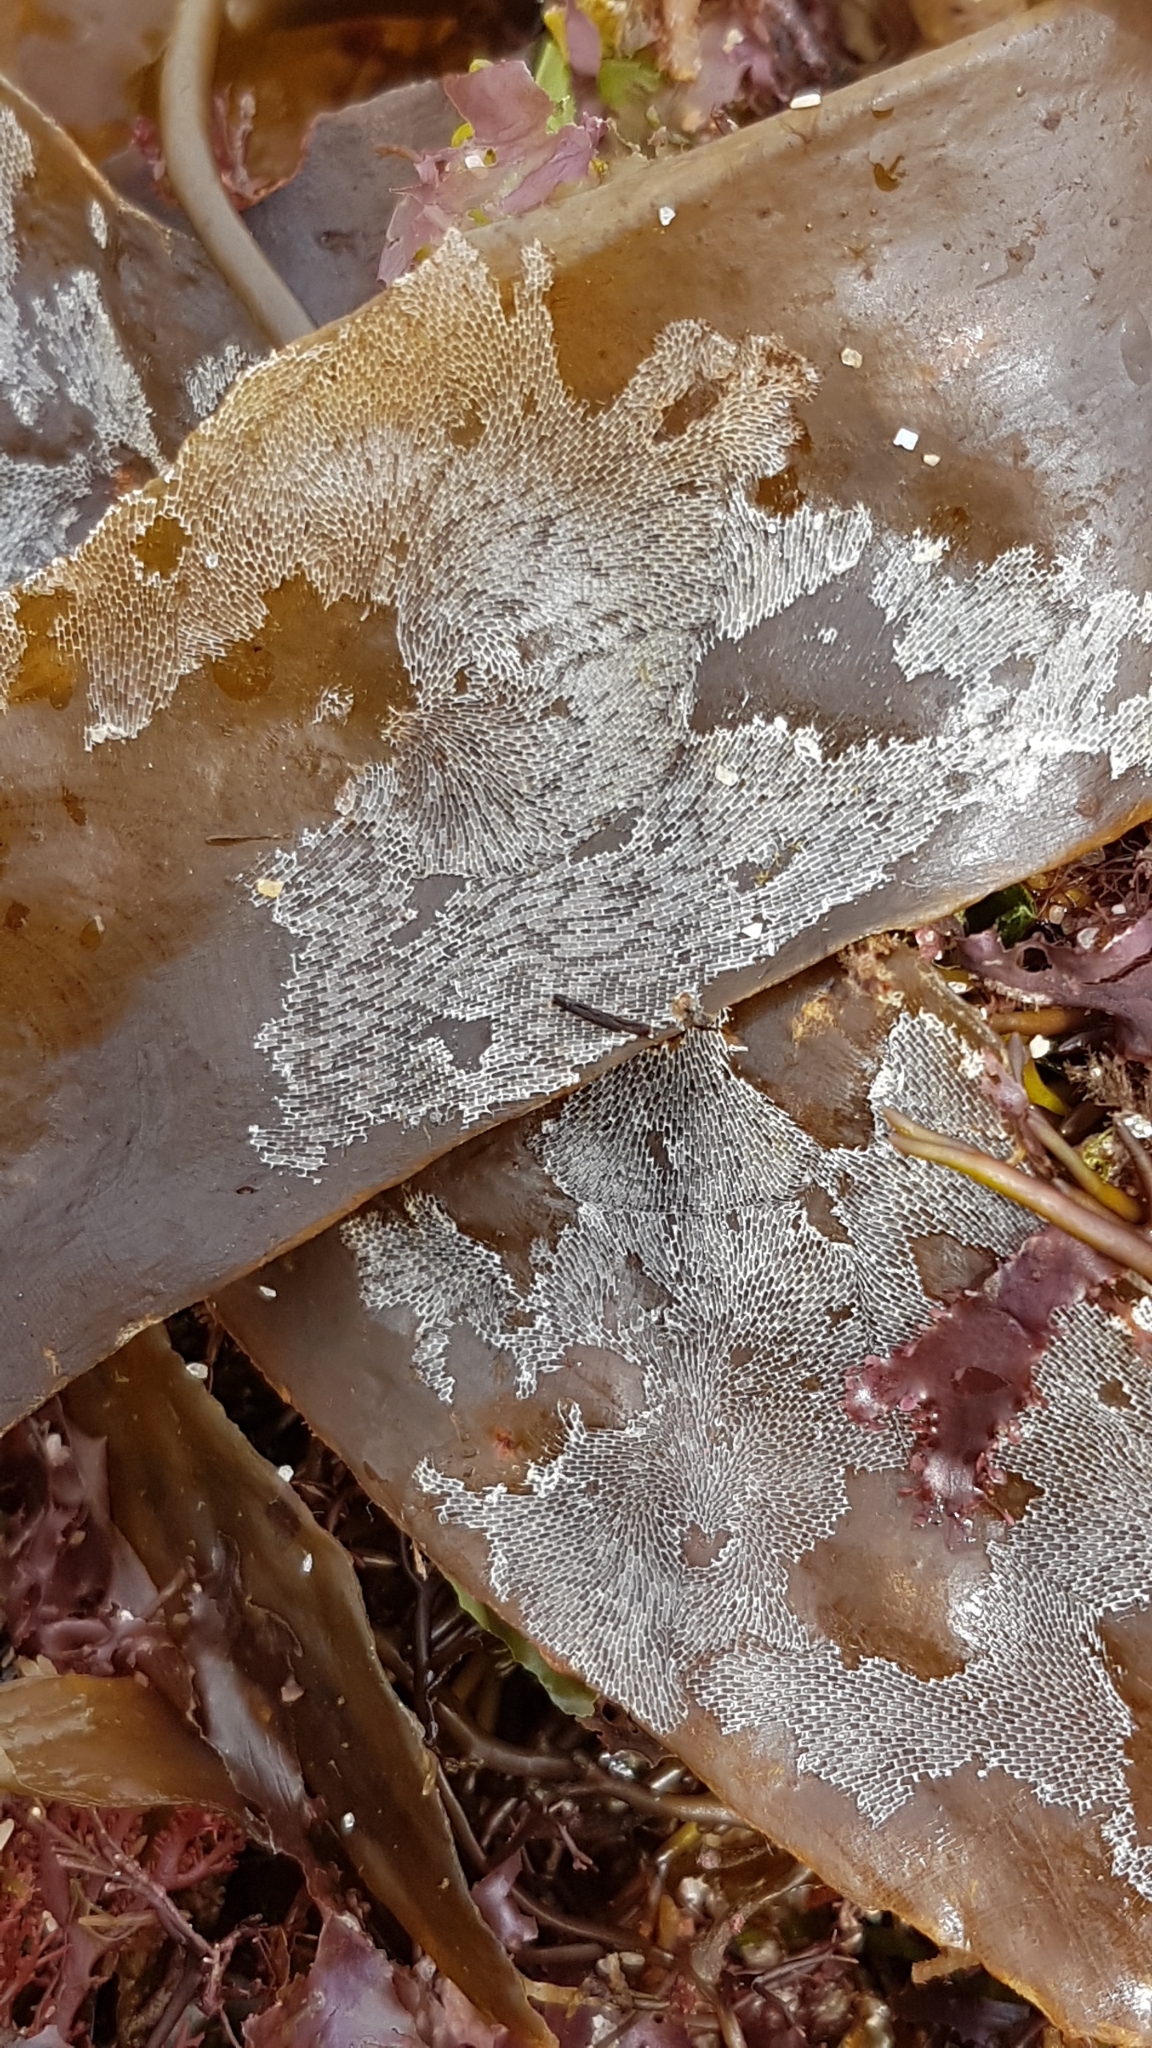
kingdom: Animalia
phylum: Bryozoa
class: Gymnolaemata
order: Cheilostomatida
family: Membraniporidae
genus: Membranipora
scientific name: Membranipora membranacea
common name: Sea mat
